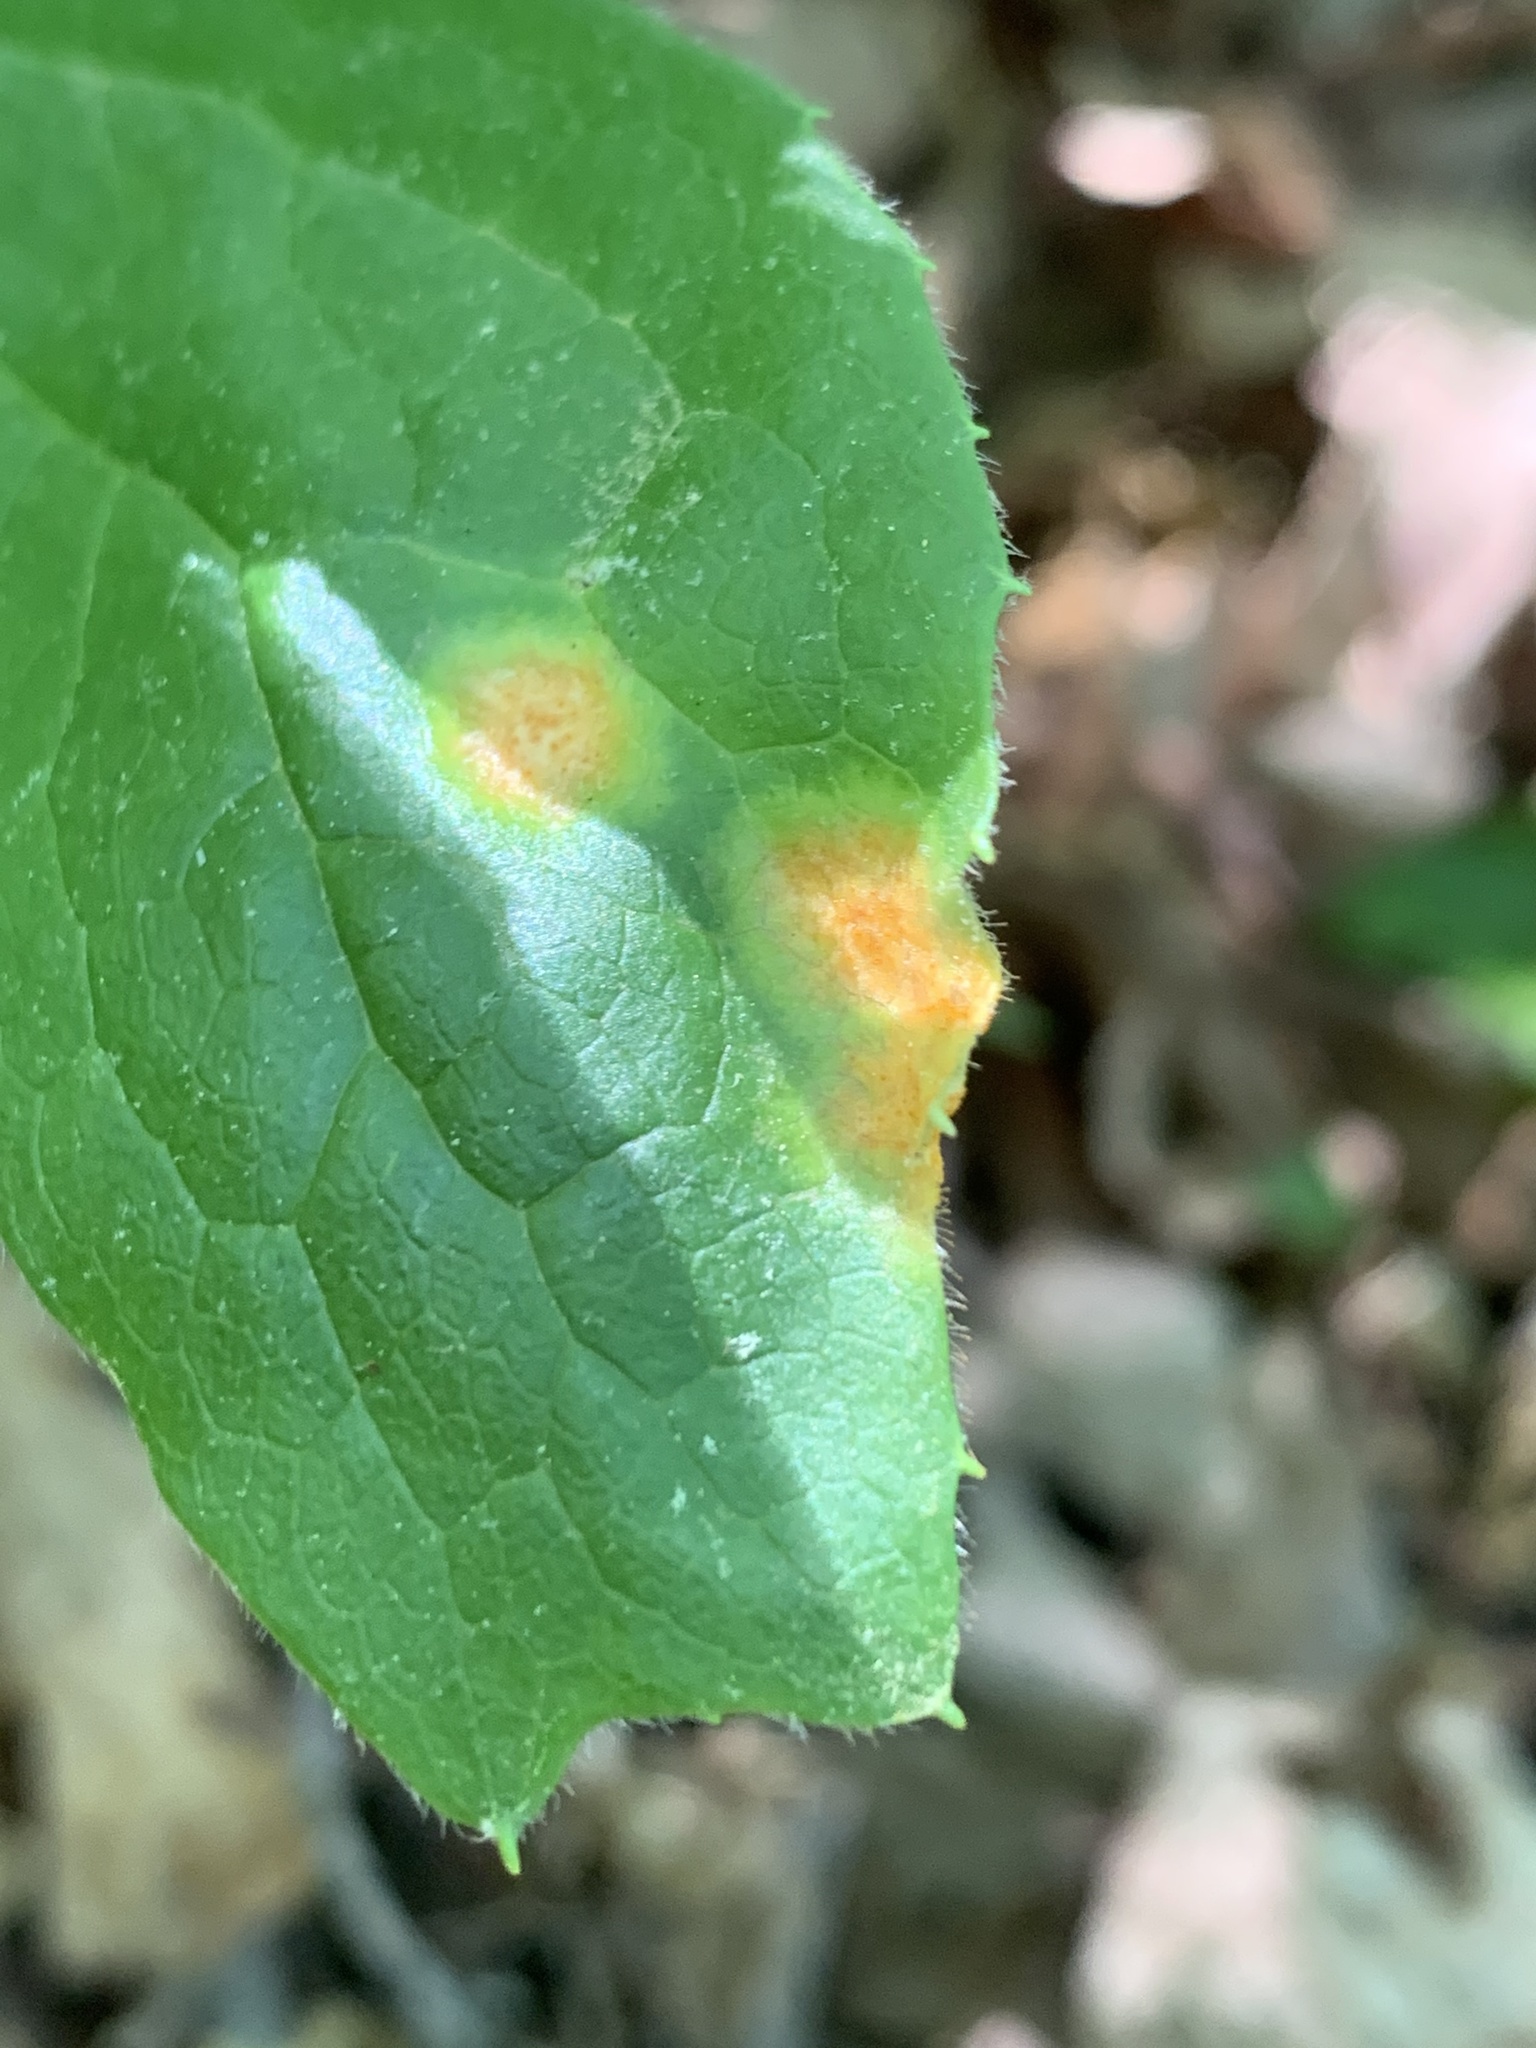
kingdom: Fungi
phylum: Basidiomycota
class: Pucciniomycetes
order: Pucciniales
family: Pucciniaceae
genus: Puccinia
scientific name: Puccinia podophylli
